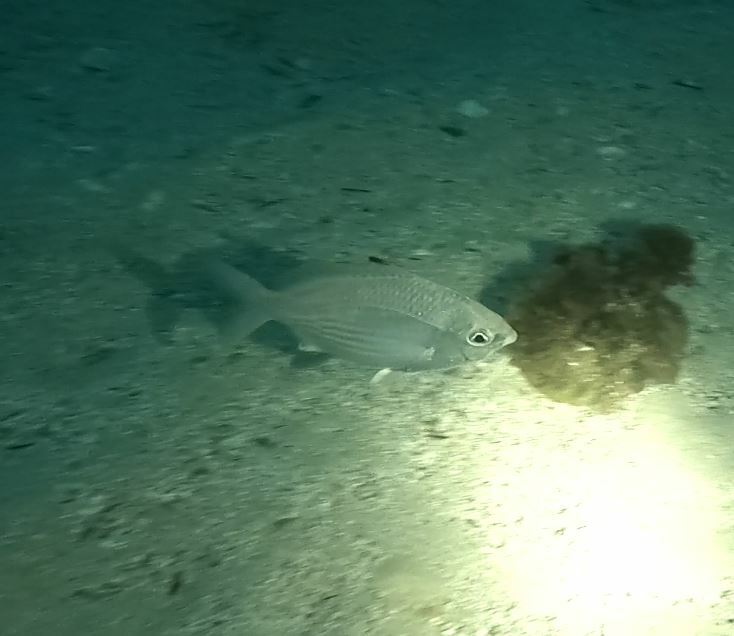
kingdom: Animalia
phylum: Chordata
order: Perciformes
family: Gerreidae
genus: Gerres
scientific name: Gerres subfasciatus
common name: Common silver belly
